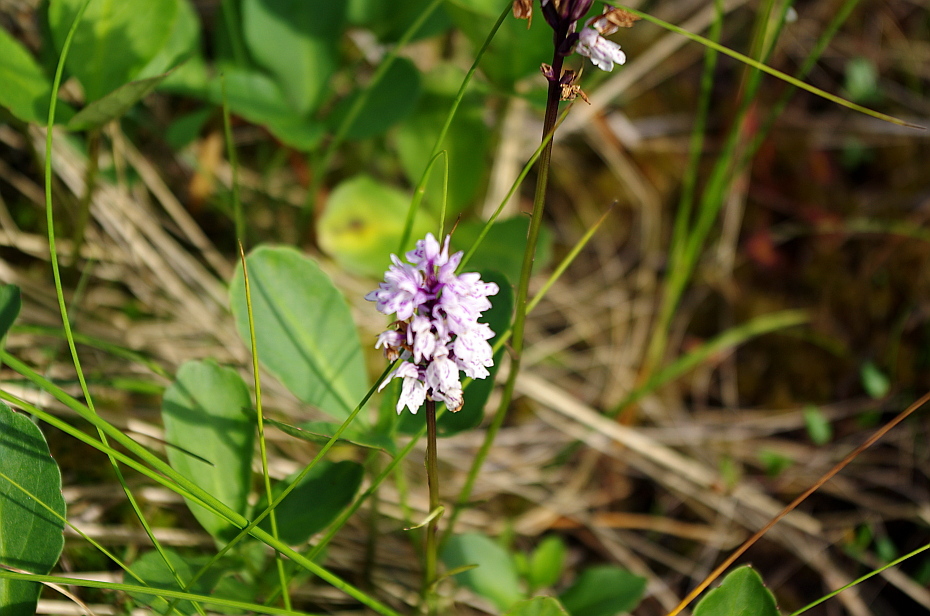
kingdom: Plantae
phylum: Tracheophyta
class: Liliopsida
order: Asparagales
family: Orchidaceae
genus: Dactylorhiza
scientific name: Dactylorhiza maculata
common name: Heath spotted-orchid
